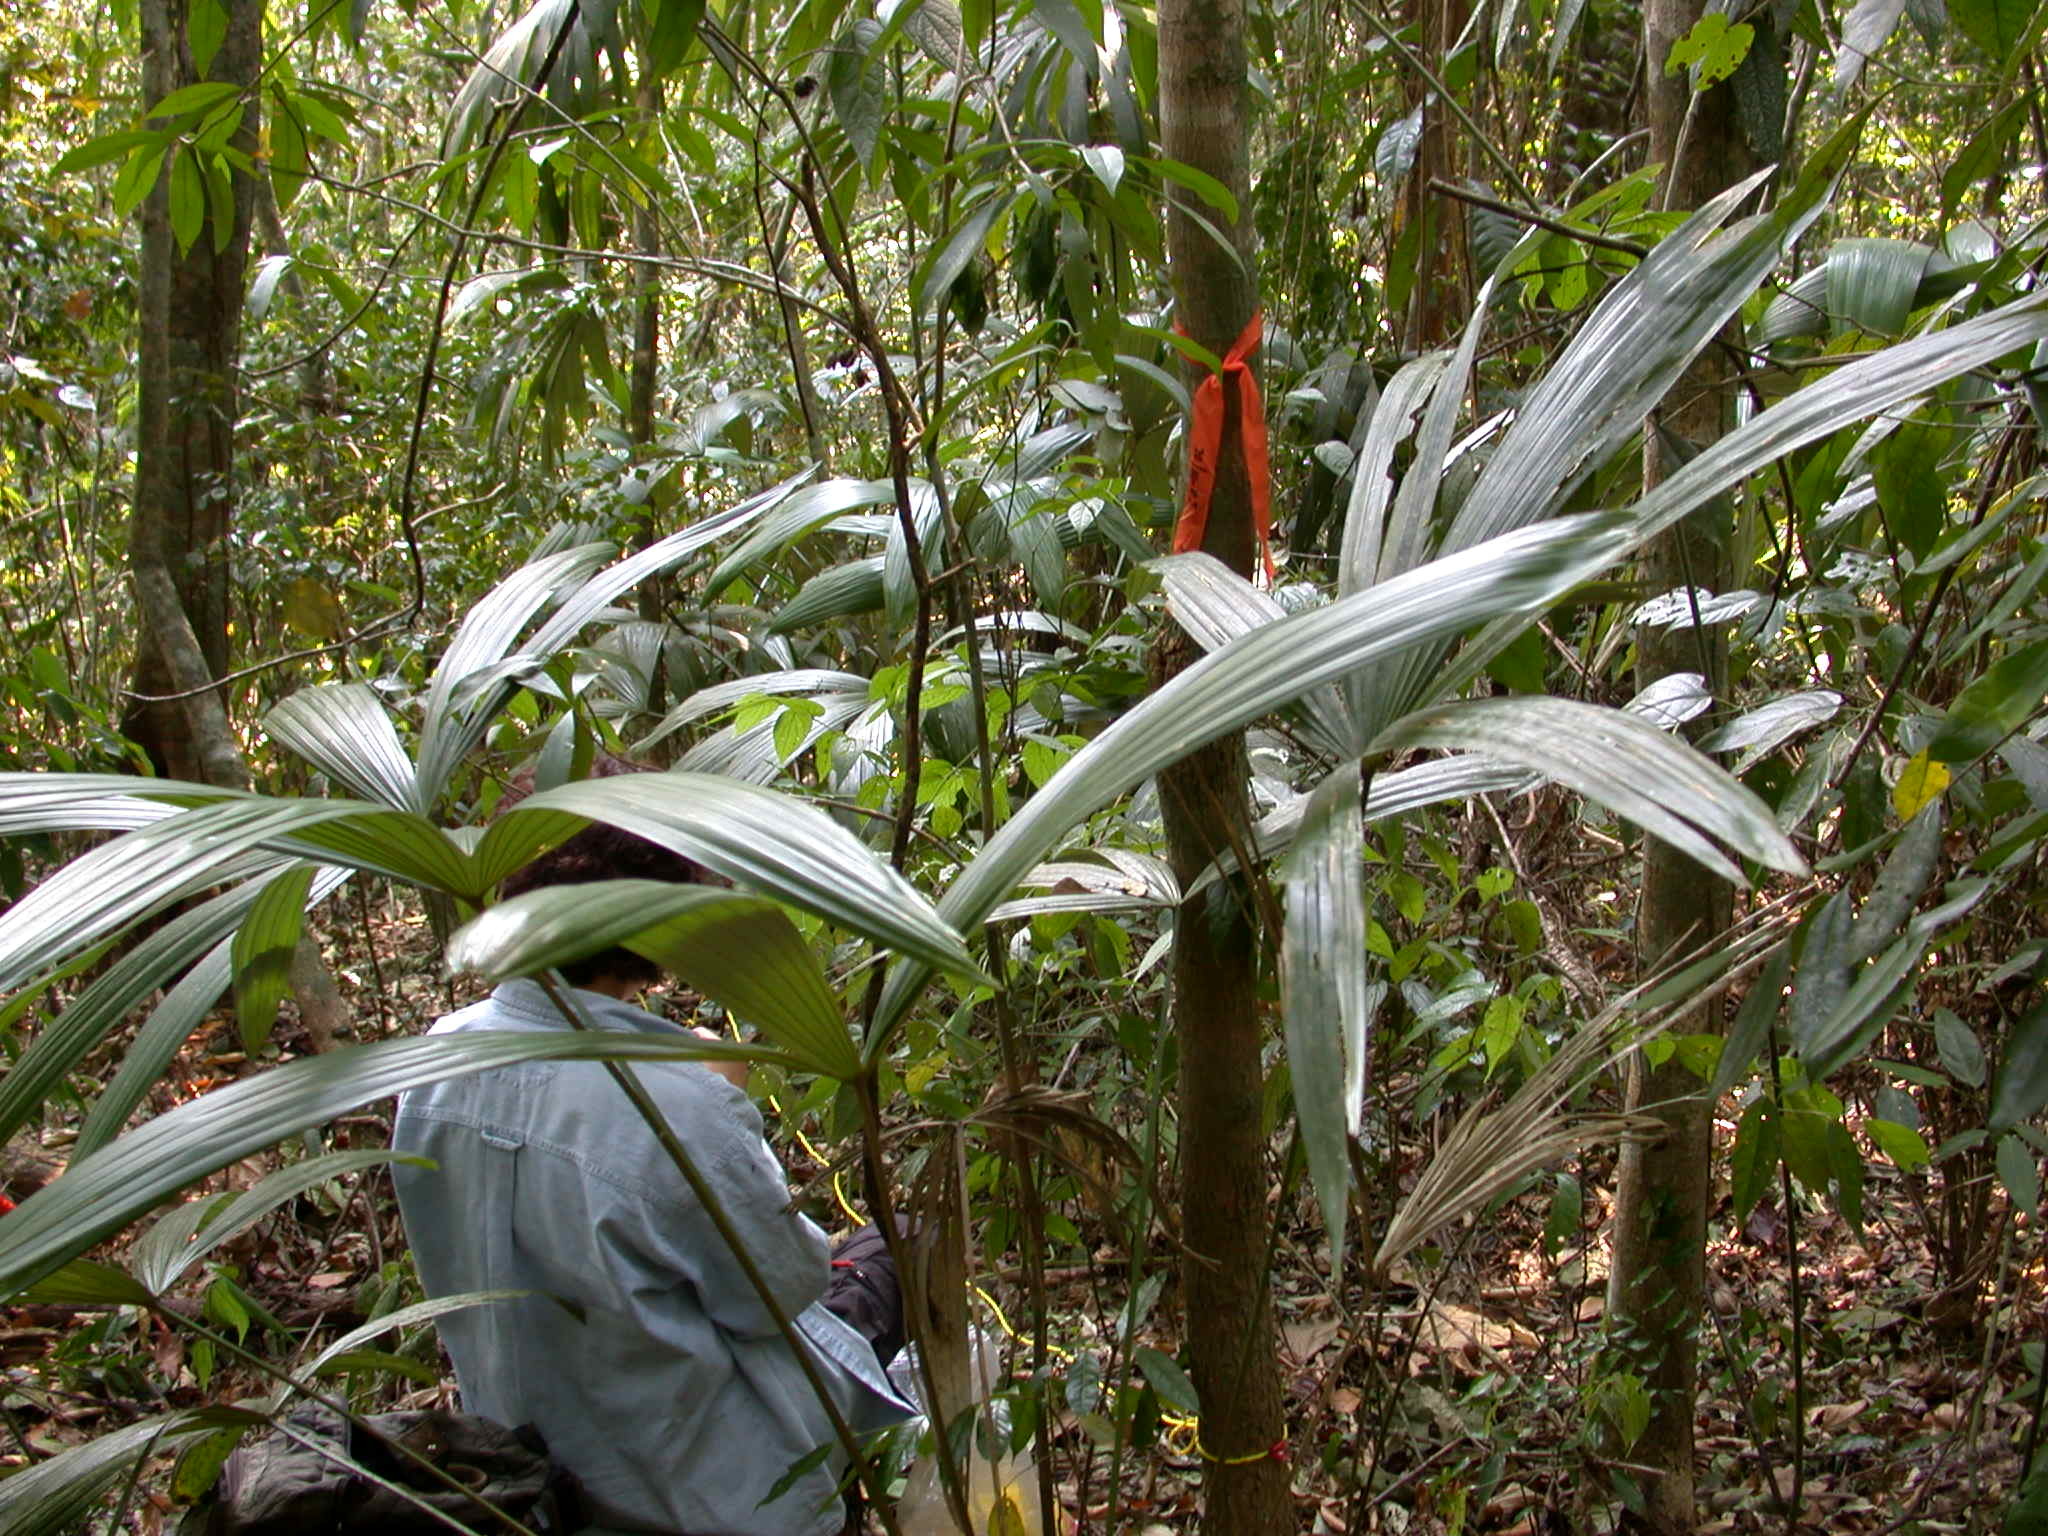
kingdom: Plantae
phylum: Tracheophyta
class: Liliopsida
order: Arecales
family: Arecaceae
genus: Cryosophila
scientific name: Cryosophila stauracantha
